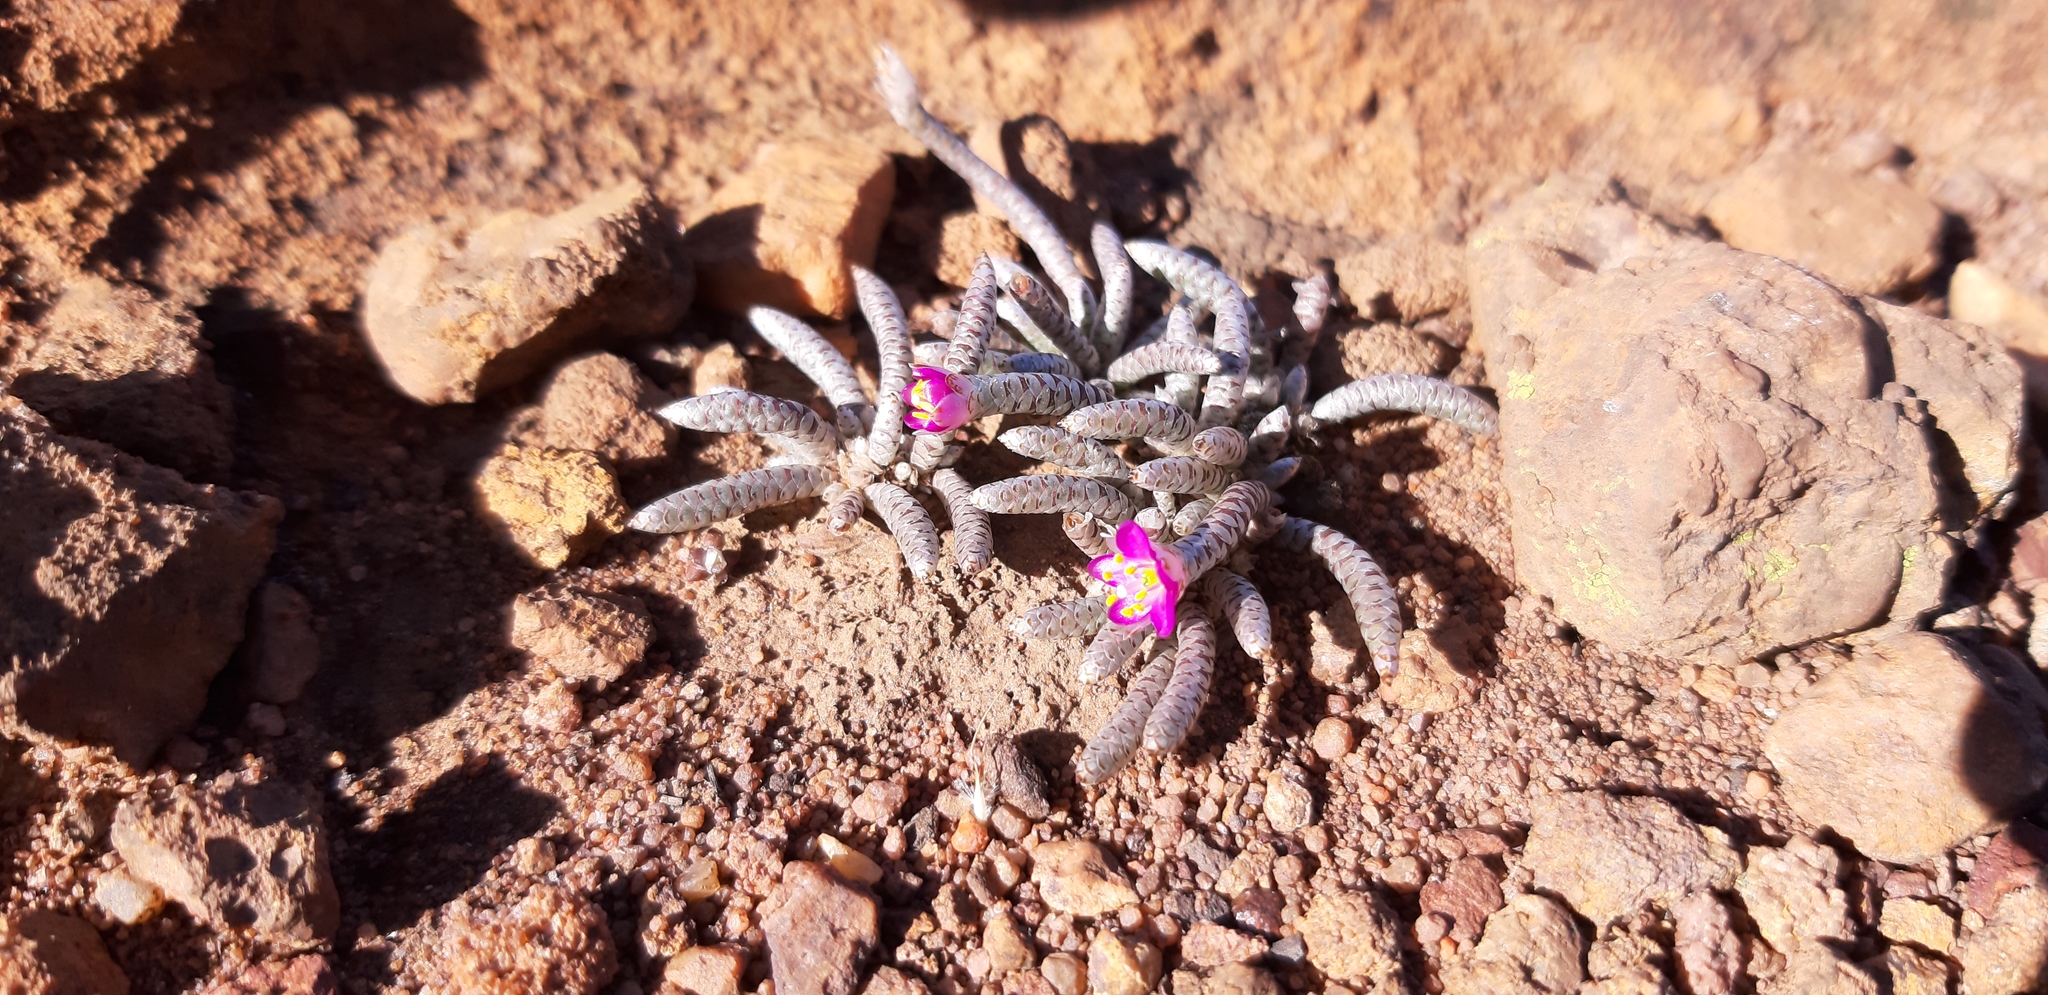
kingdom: Plantae
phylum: Tracheophyta
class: Magnoliopsida
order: Caryophyllales
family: Anacampserotaceae
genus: Avonia
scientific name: Avonia rhodesica
